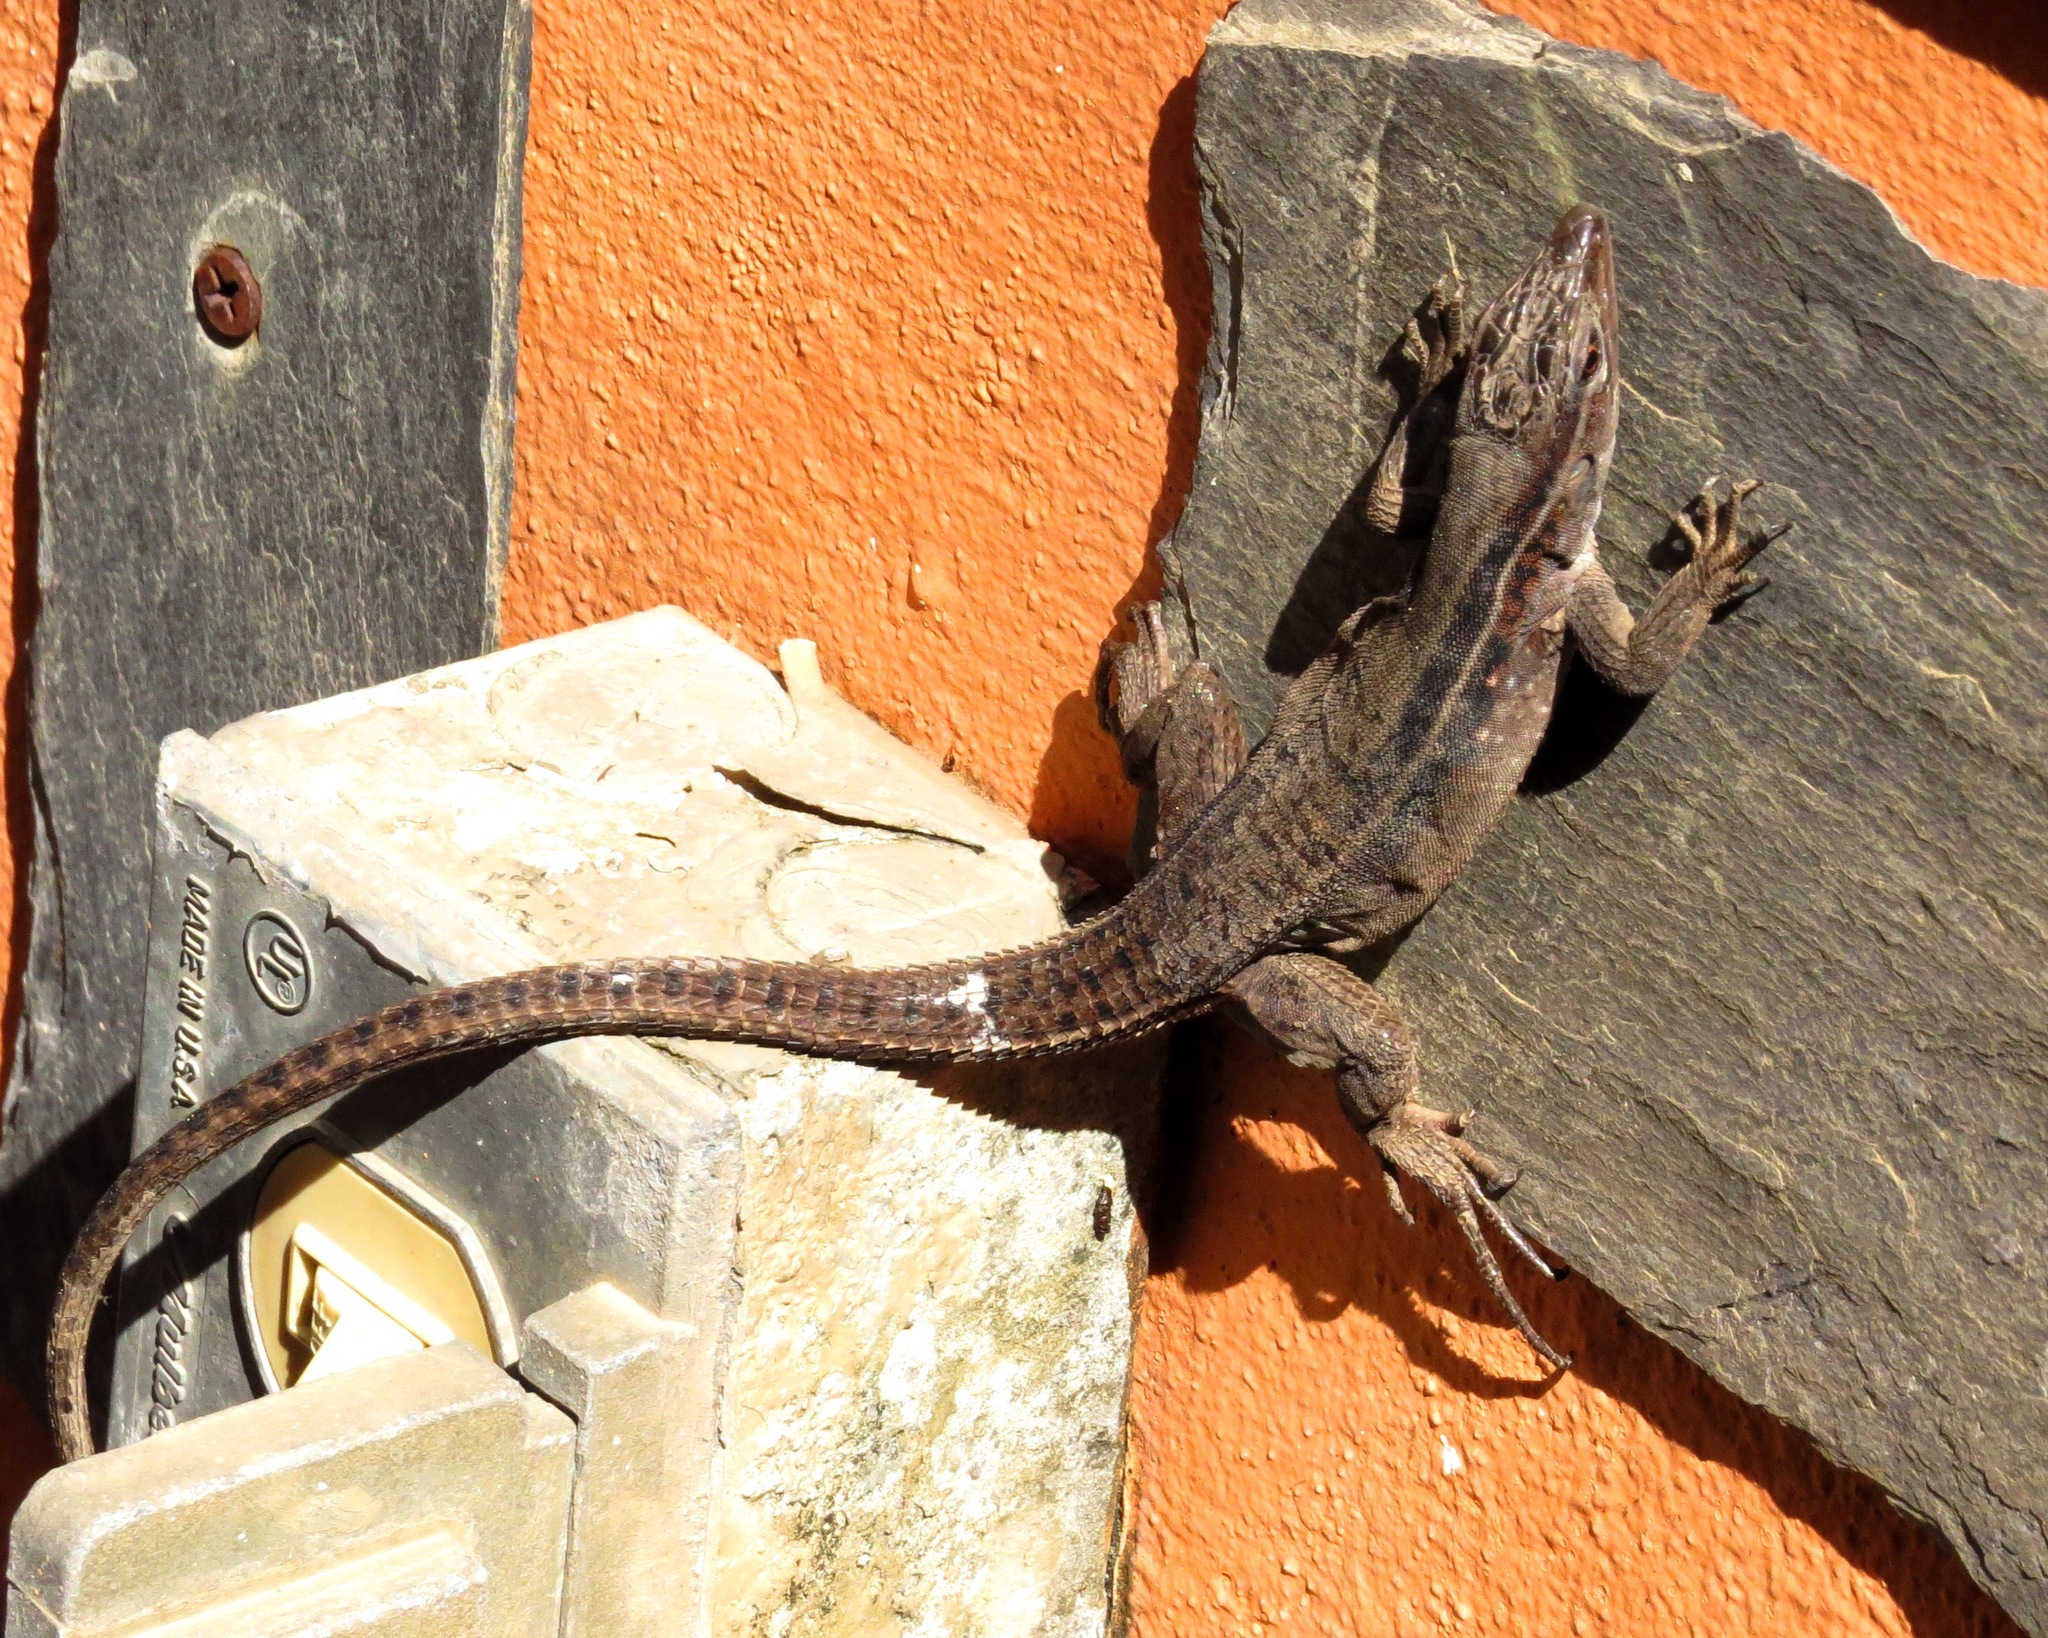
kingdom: Animalia
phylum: Chordata
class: Squamata
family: Teiidae
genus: Kentropyx
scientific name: Kentropyx borckiana
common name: Guyana kentropyx
